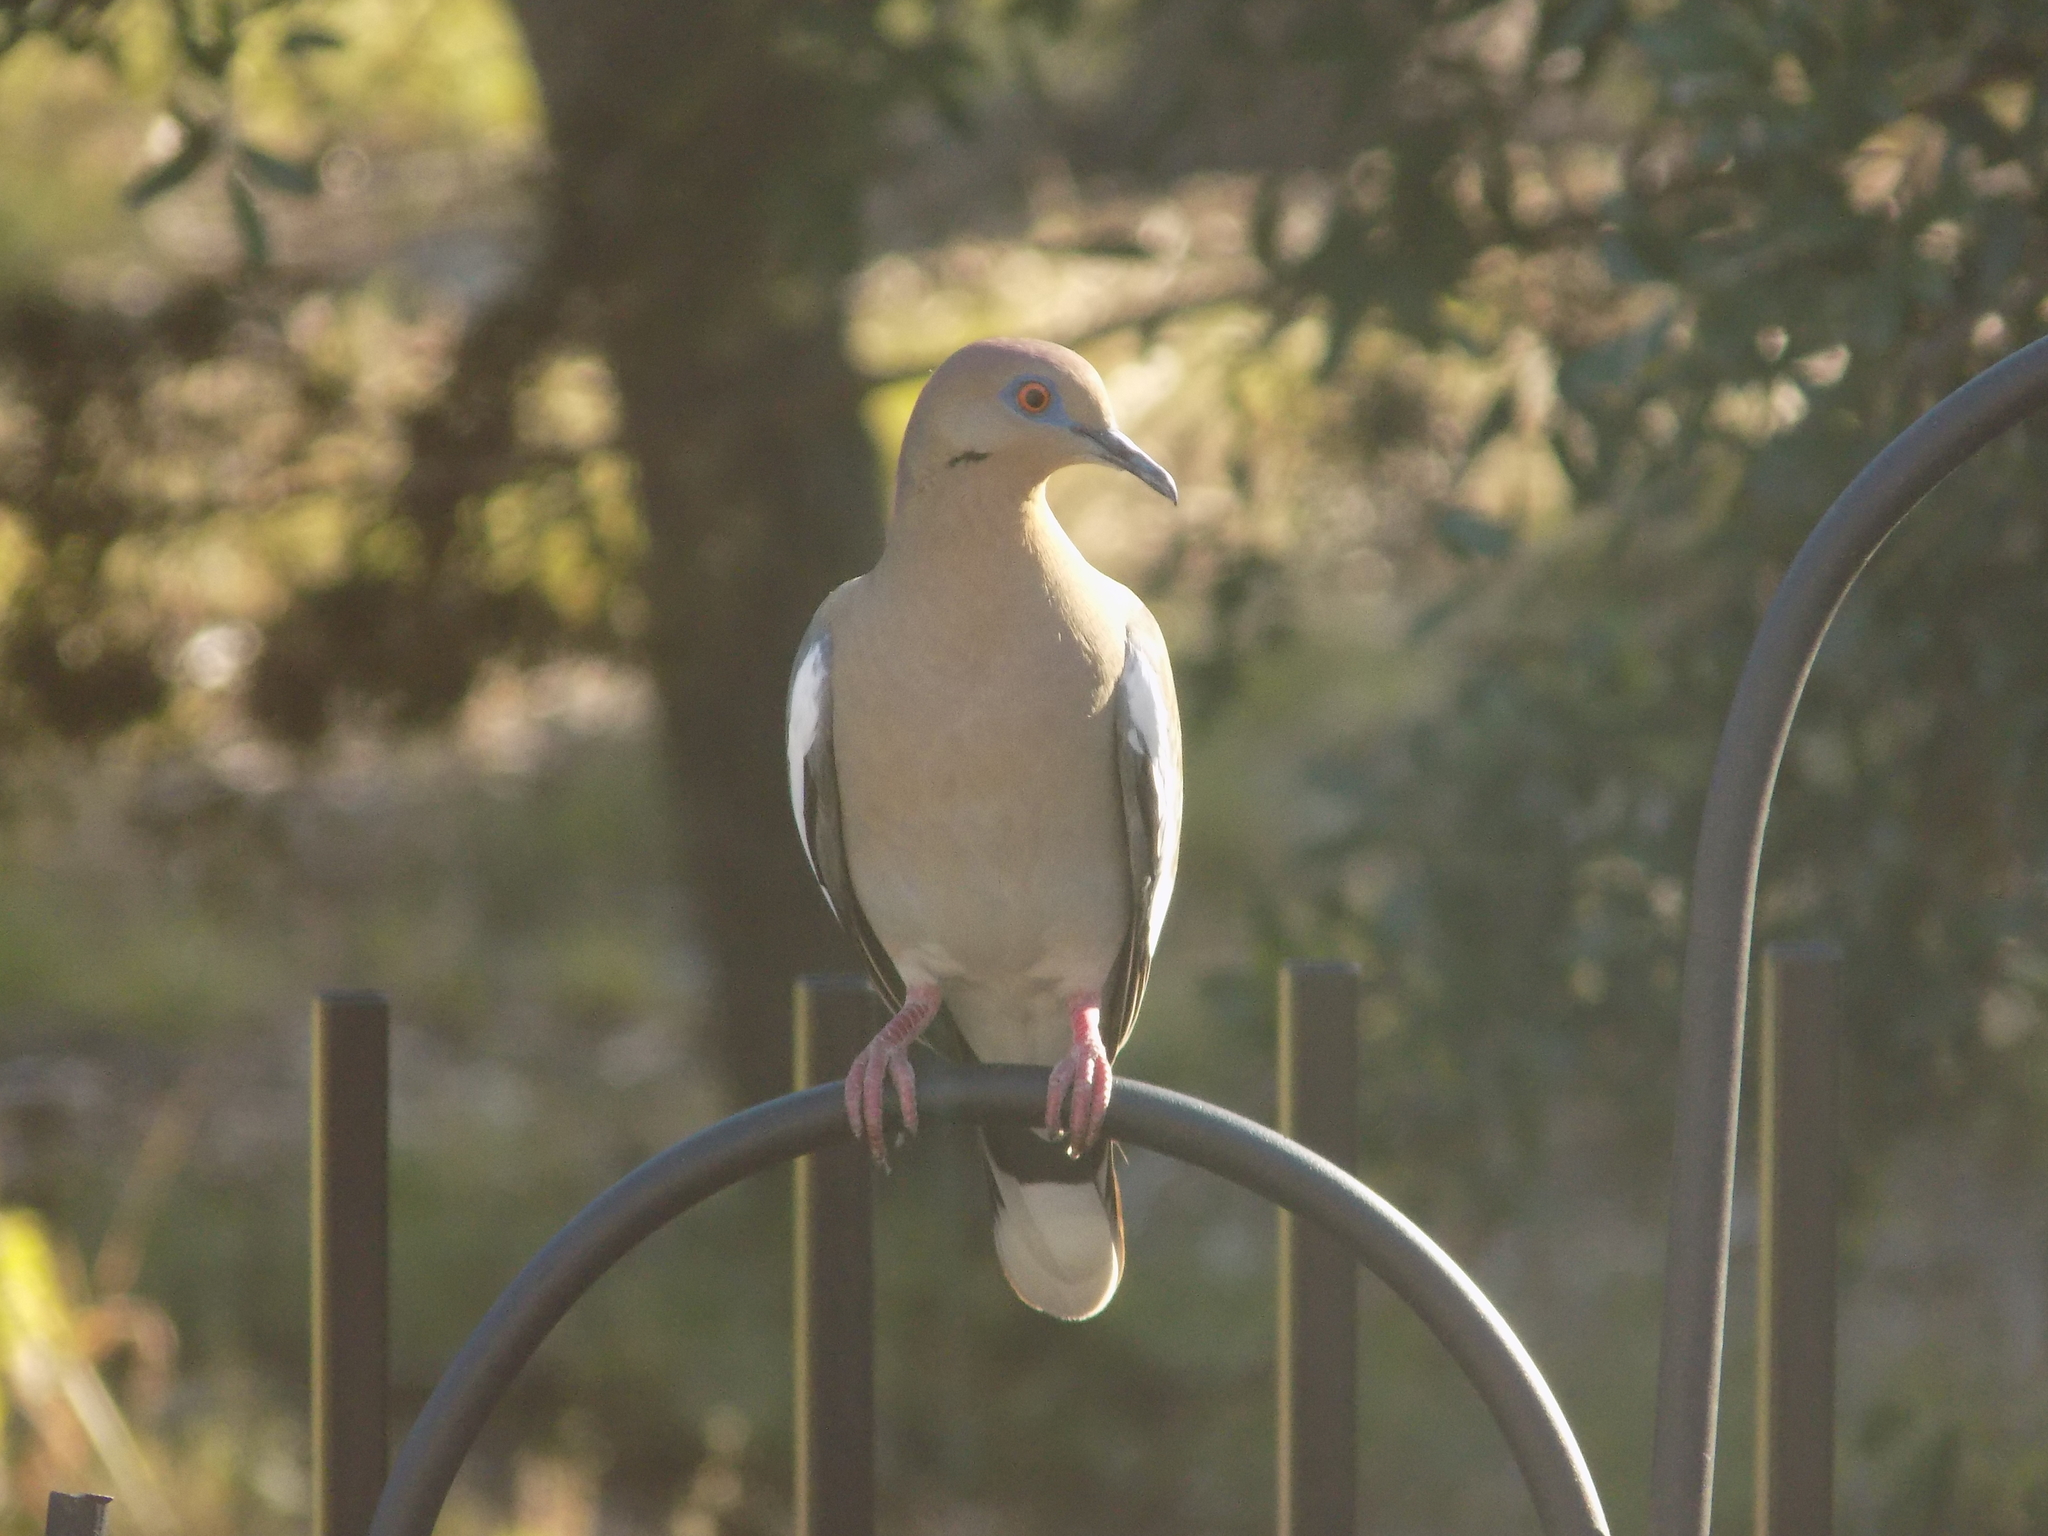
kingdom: Animalia
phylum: Chordata
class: Aves
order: Columbiformes
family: Columbidae
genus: Zenaida
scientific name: Zenaida asiatica
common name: White-winged dove
